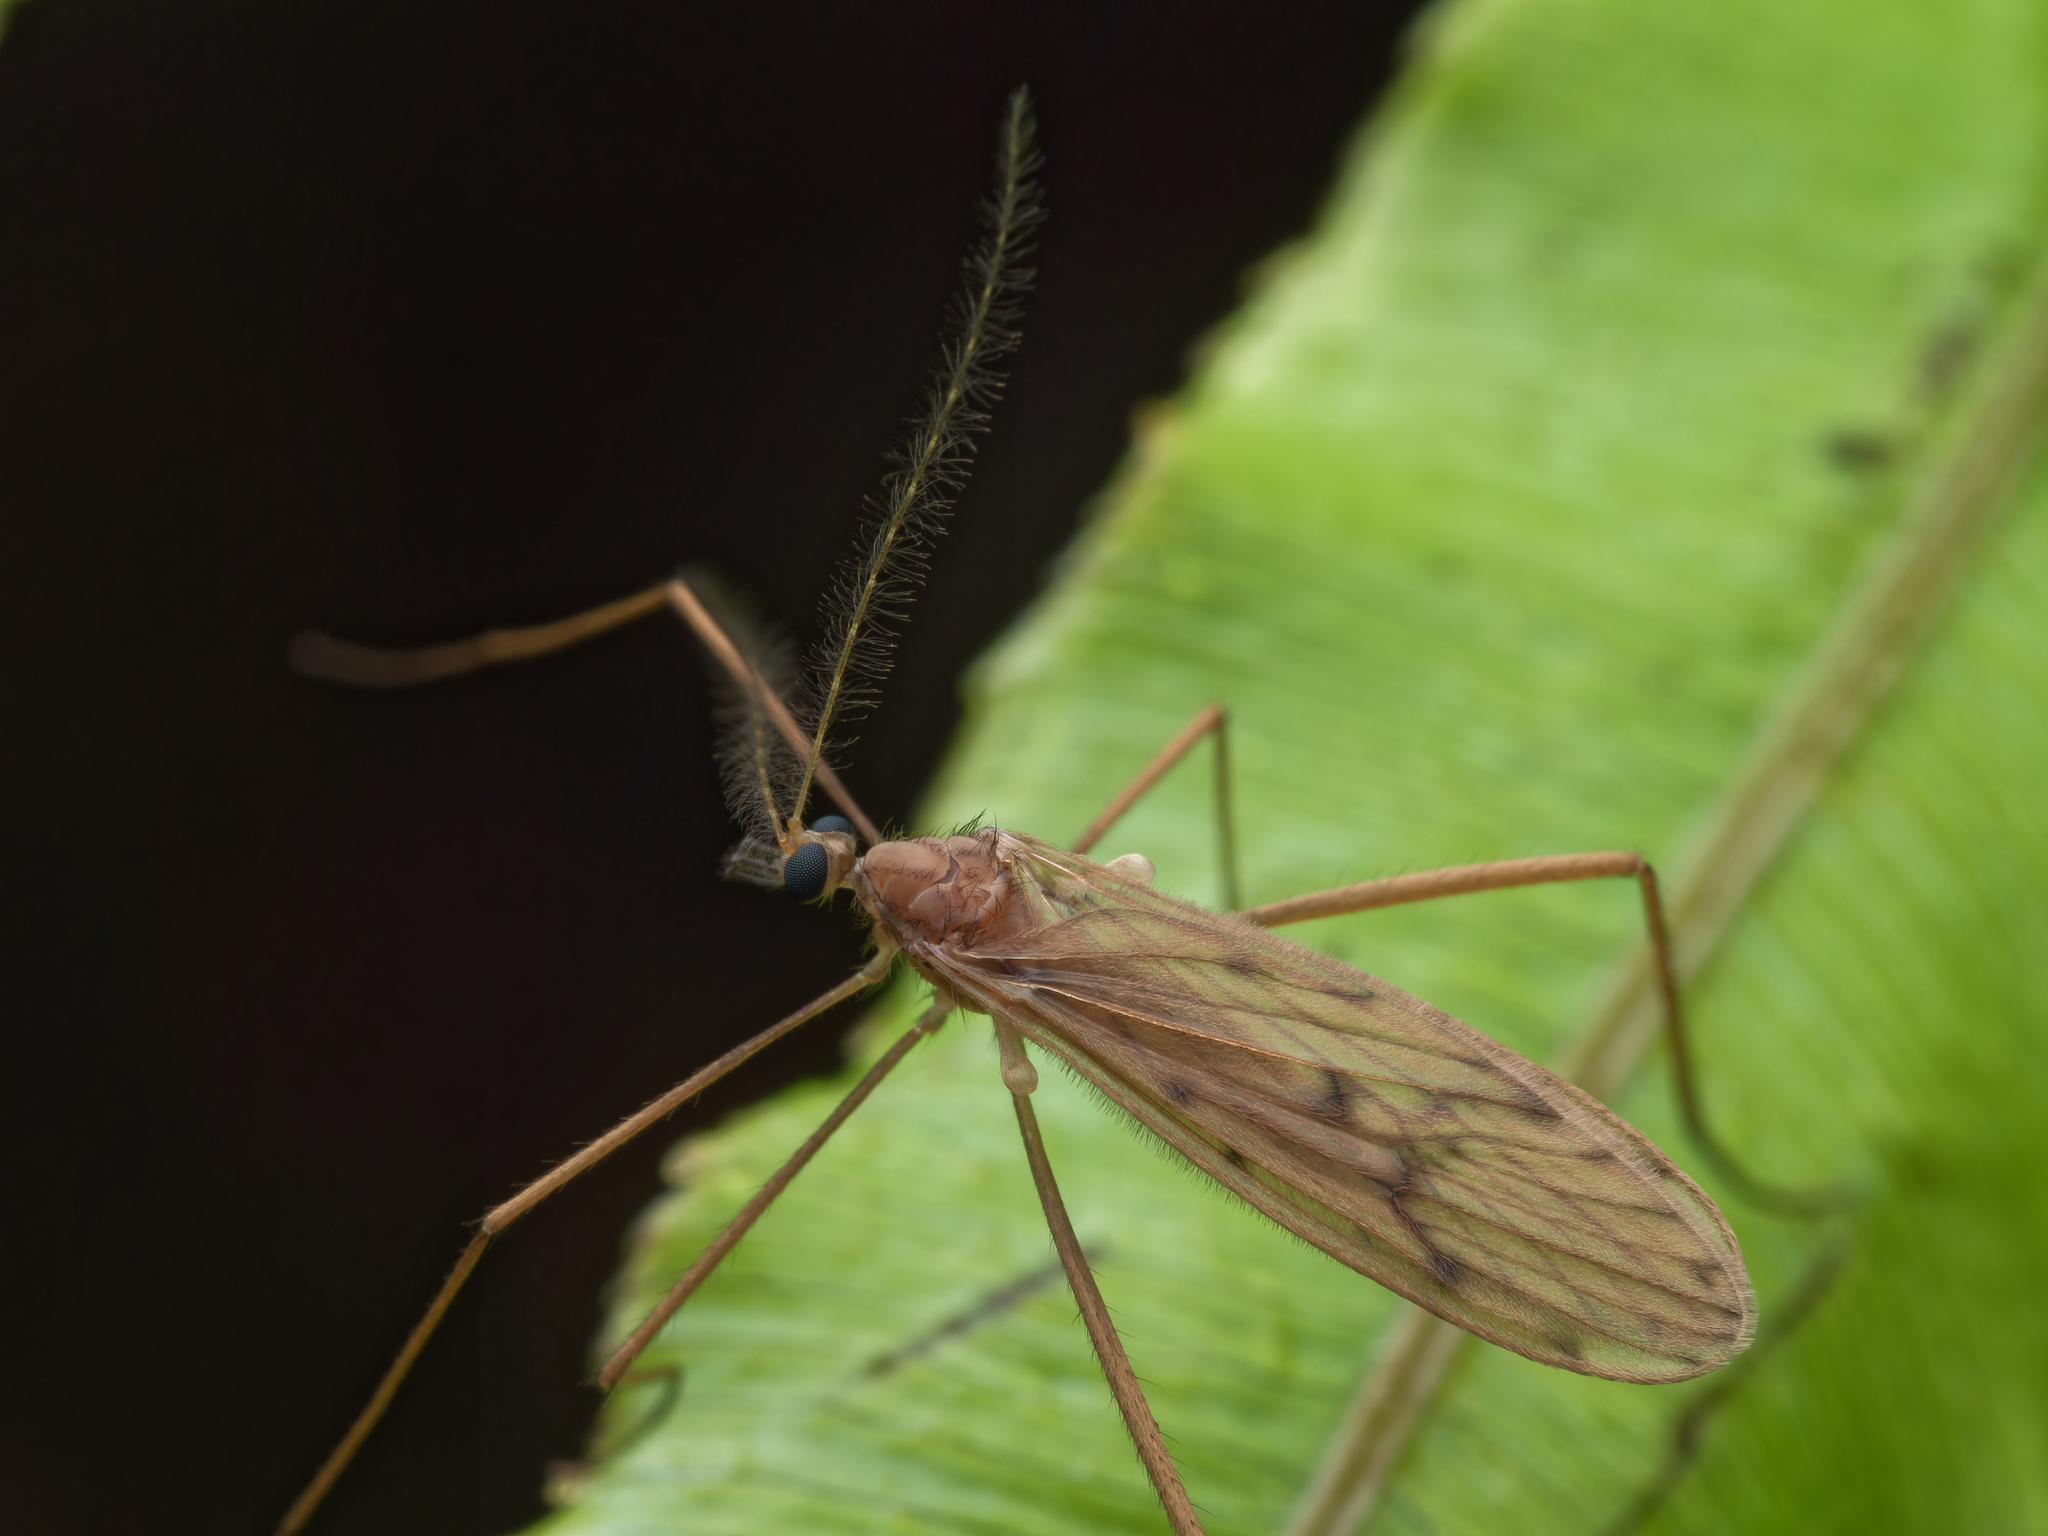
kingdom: Animalia
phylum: Arthropoda
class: Insecta
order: Diptera
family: Limoniidae
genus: Amphineurus
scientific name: Amphineurus insulsus
